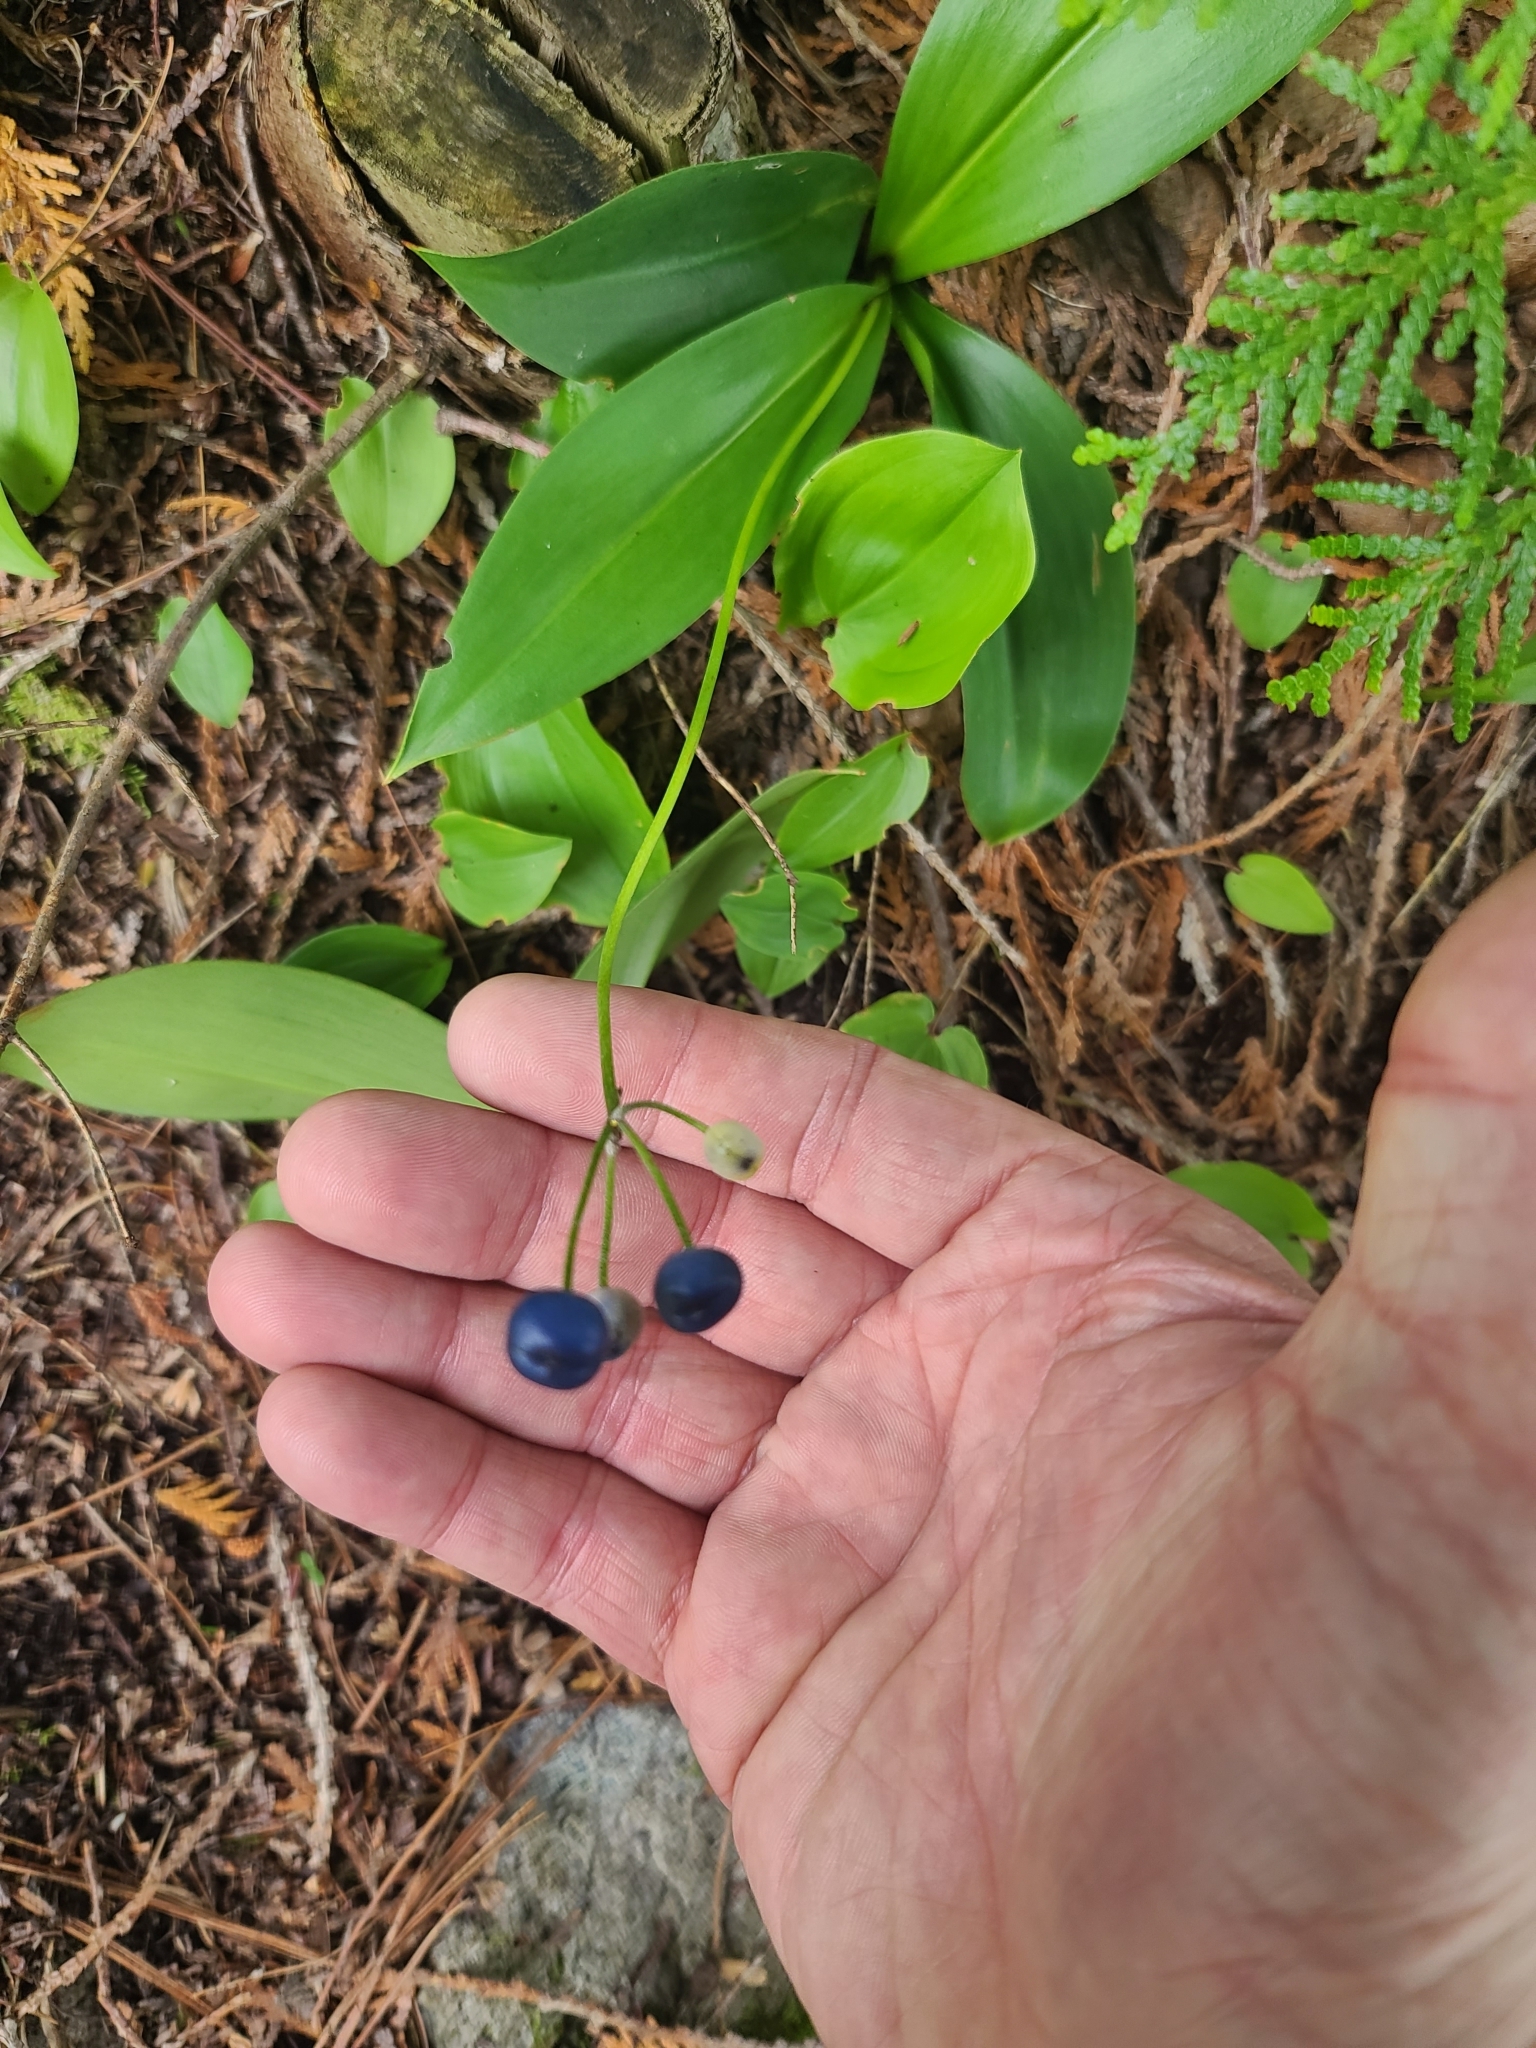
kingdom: Plantae
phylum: Tracheophyta
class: Liliopsida
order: Liliales
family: Liliaceae
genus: Clintonia
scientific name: Clintonia borealis
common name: Yellow clintonia
